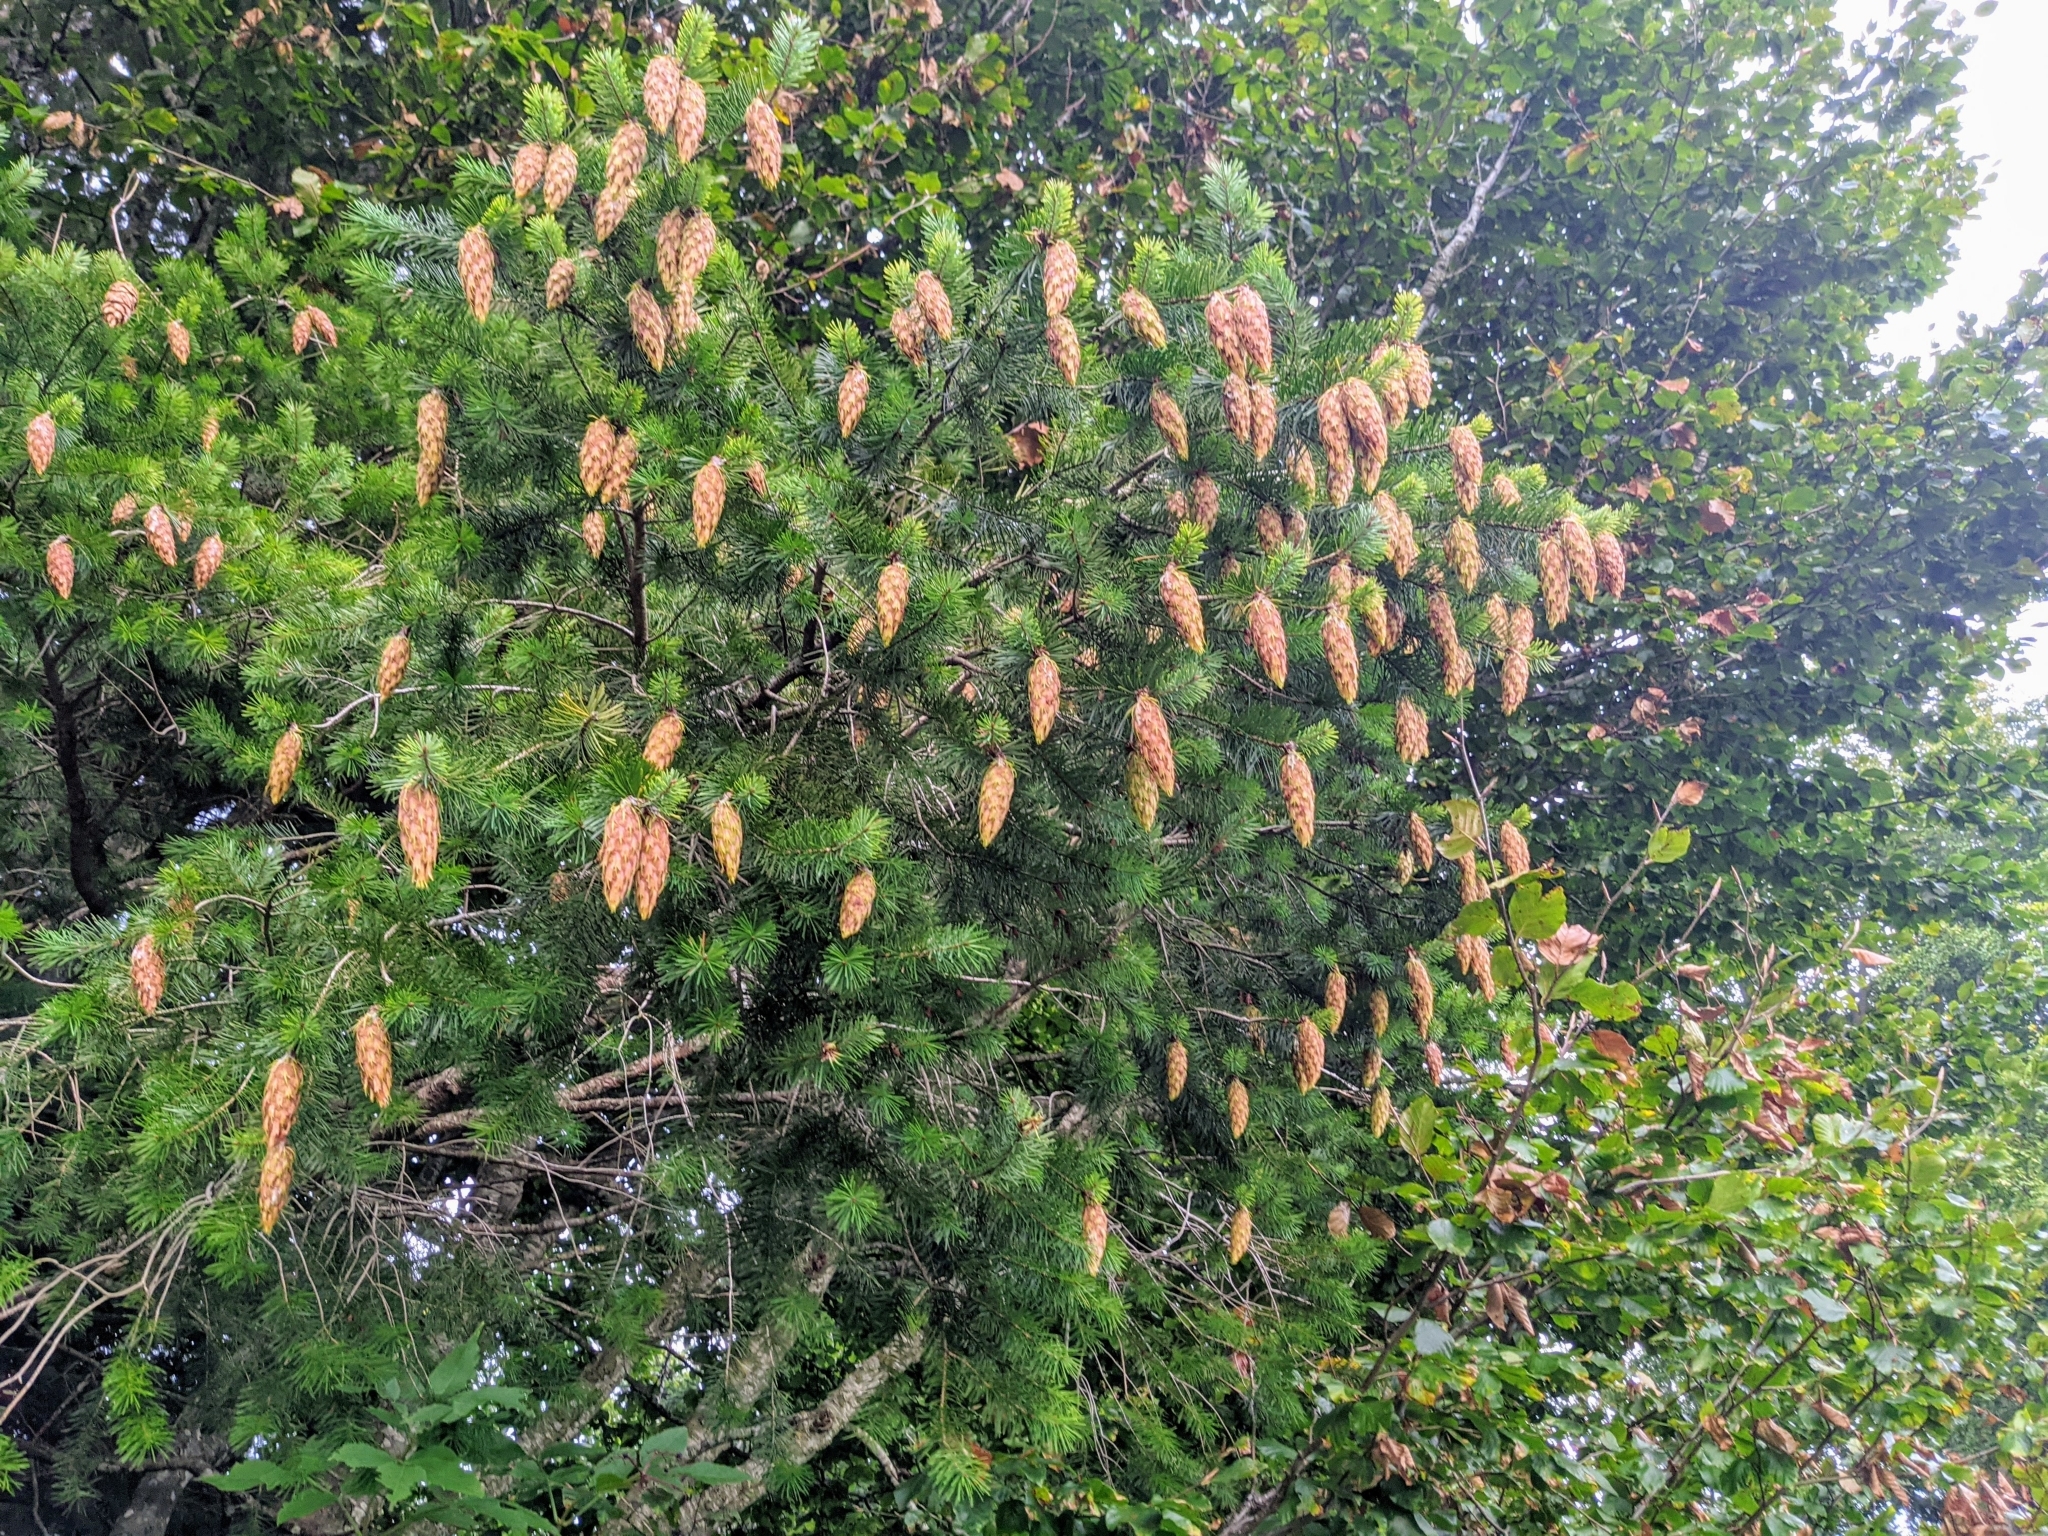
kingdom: Plantae
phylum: Tracheophyta
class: Pinopsida
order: Pinales
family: Pinaceae
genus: Pseudotsuga
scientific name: Pseudotsuga menziesii
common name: Douglas fir
